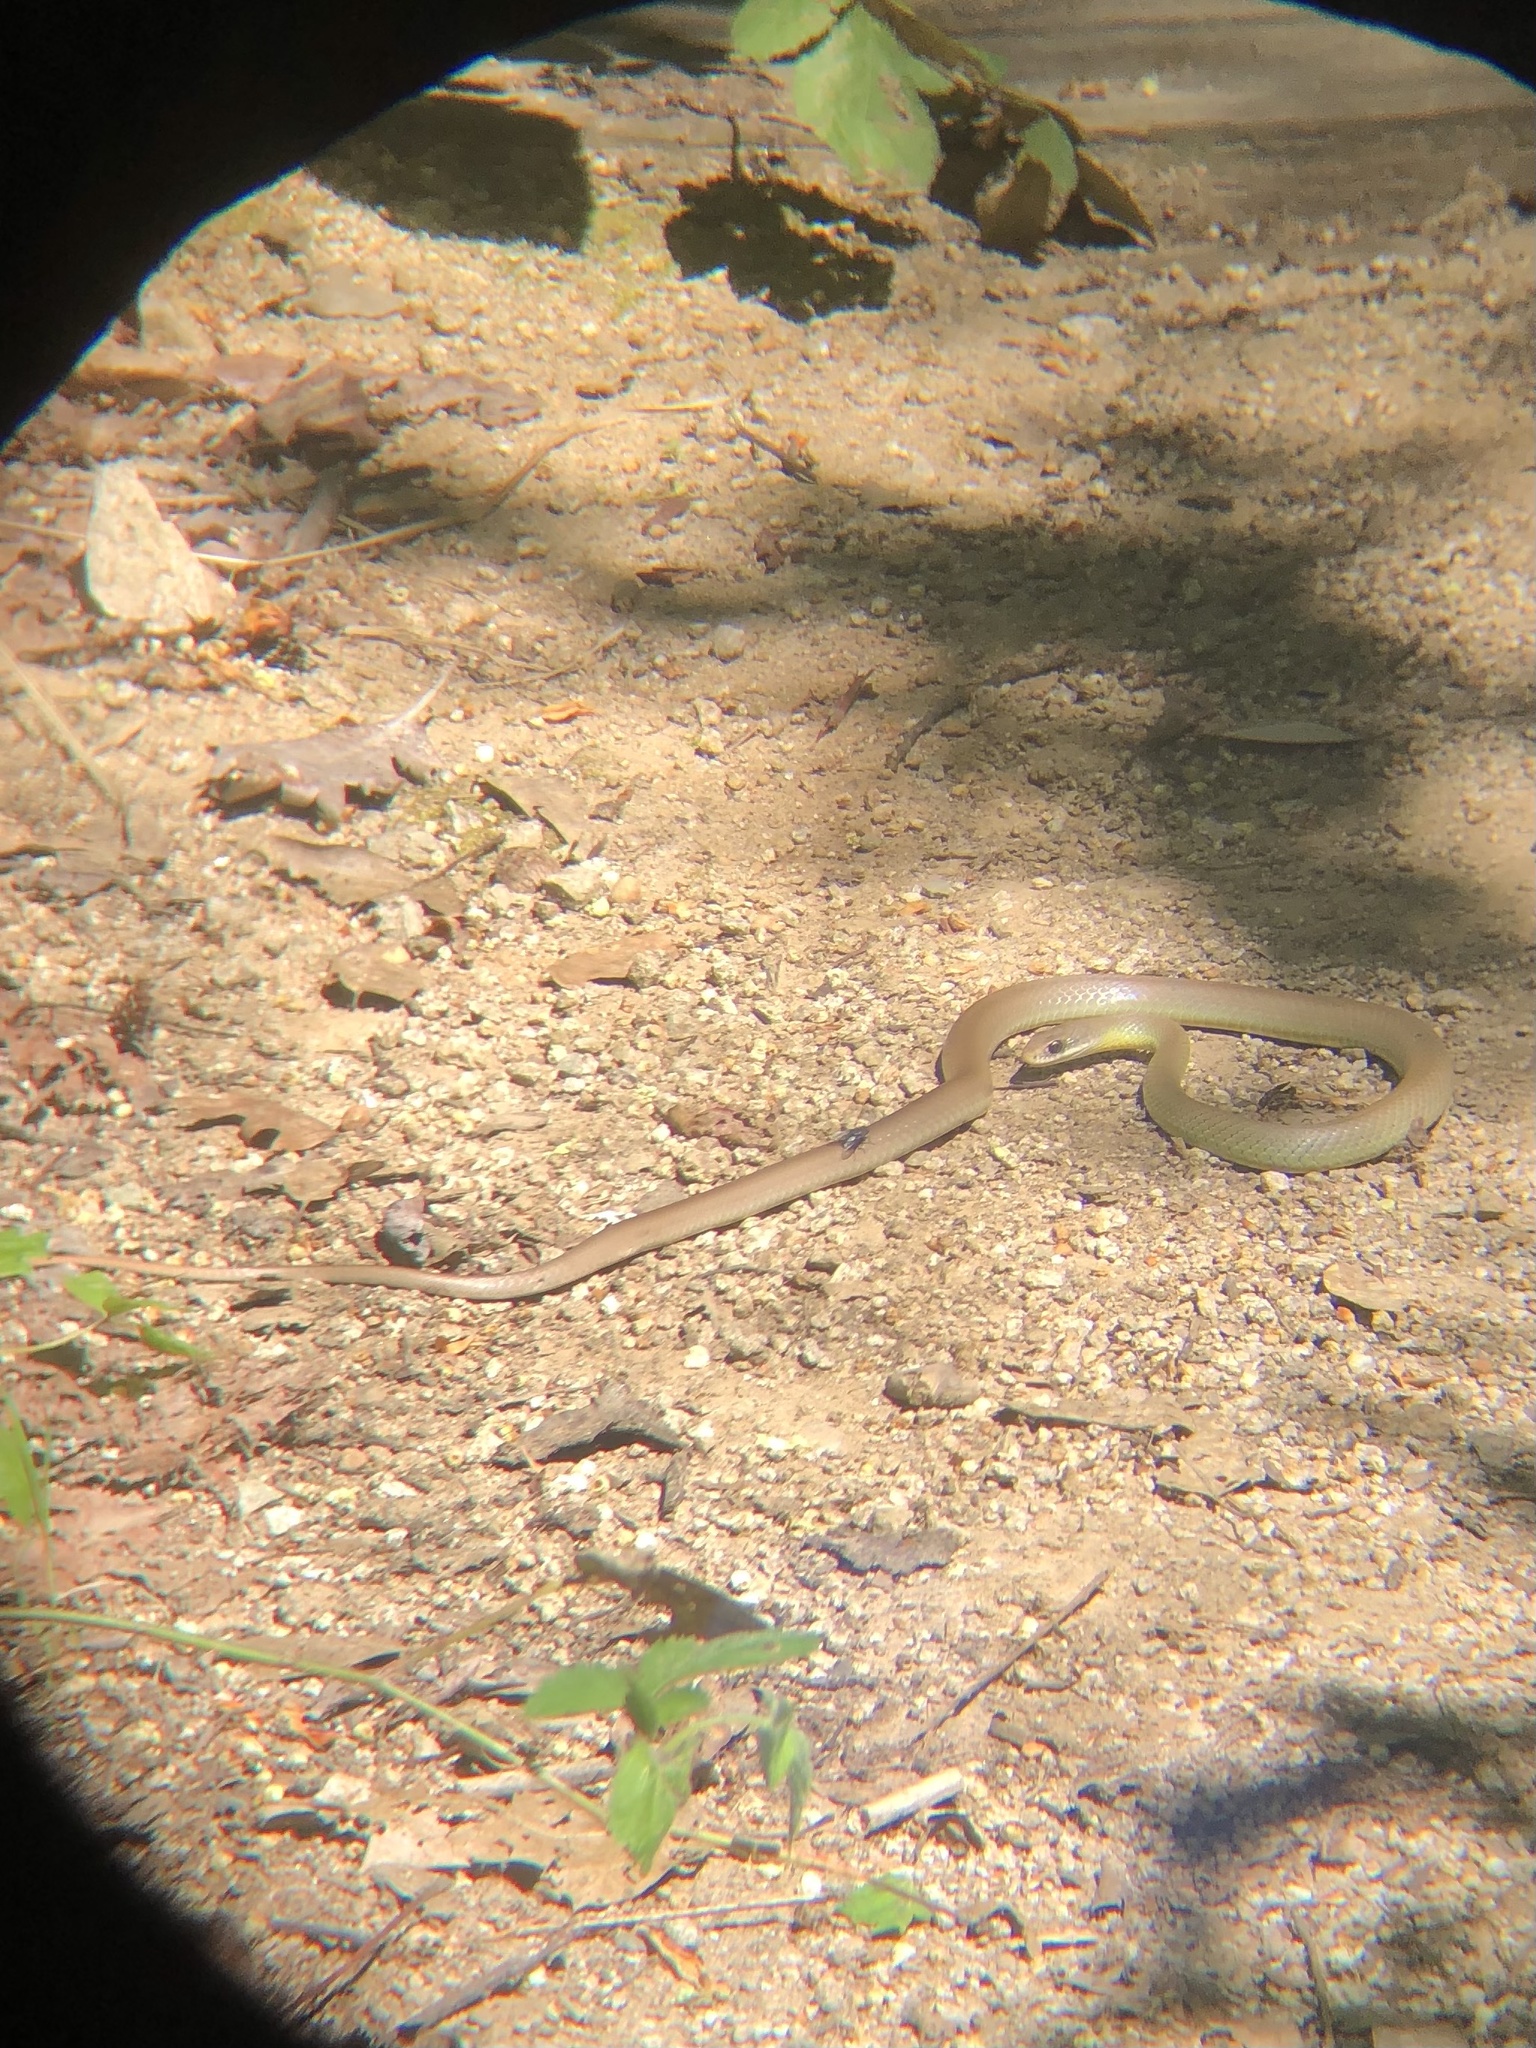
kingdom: Animalia
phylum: Chordata
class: Squamata
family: Colubridae
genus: Coluber
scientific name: Coluber constrictor
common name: Eastern racer
